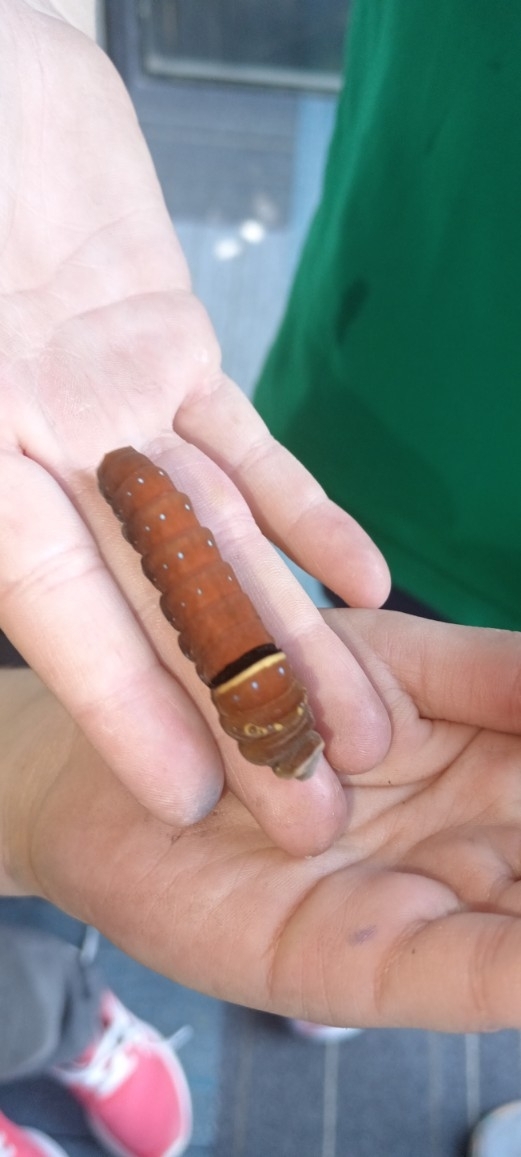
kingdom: Animalia
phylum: Arthropoda
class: Insecta
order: Lepidoptera
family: Papilionidae
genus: Papilio
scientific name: Papilio multicaudata
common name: Two-tailed tiger swallowtail
